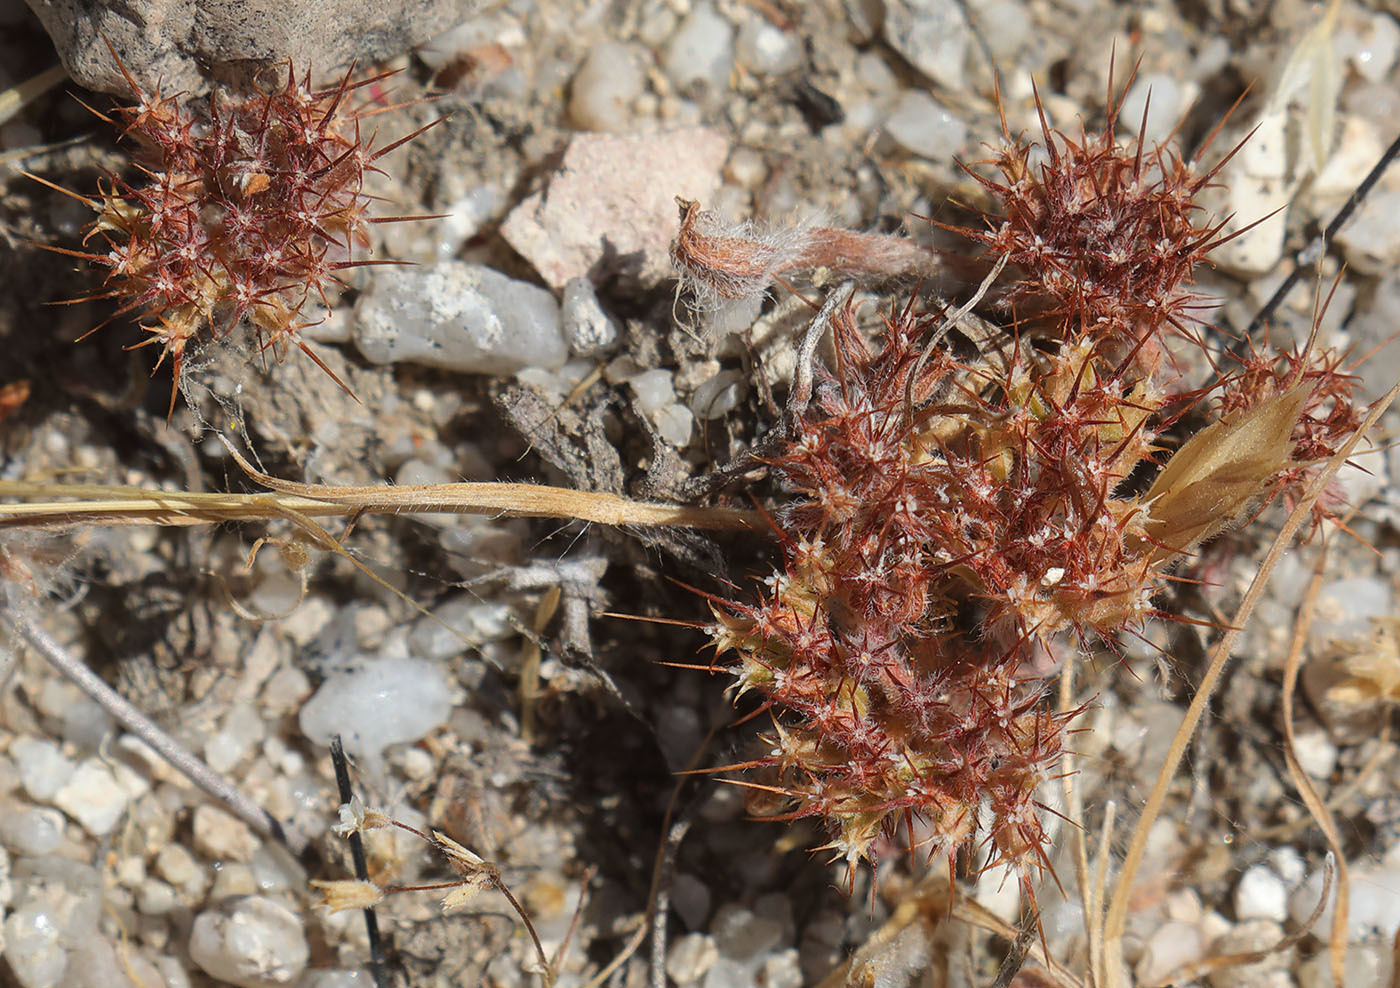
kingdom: Plantae
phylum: Tracheophyta
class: Magnoliopsida
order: Caryophyllales
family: Polygonaceae
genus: Chorizanthe
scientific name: Chorizanthe uniaristata
